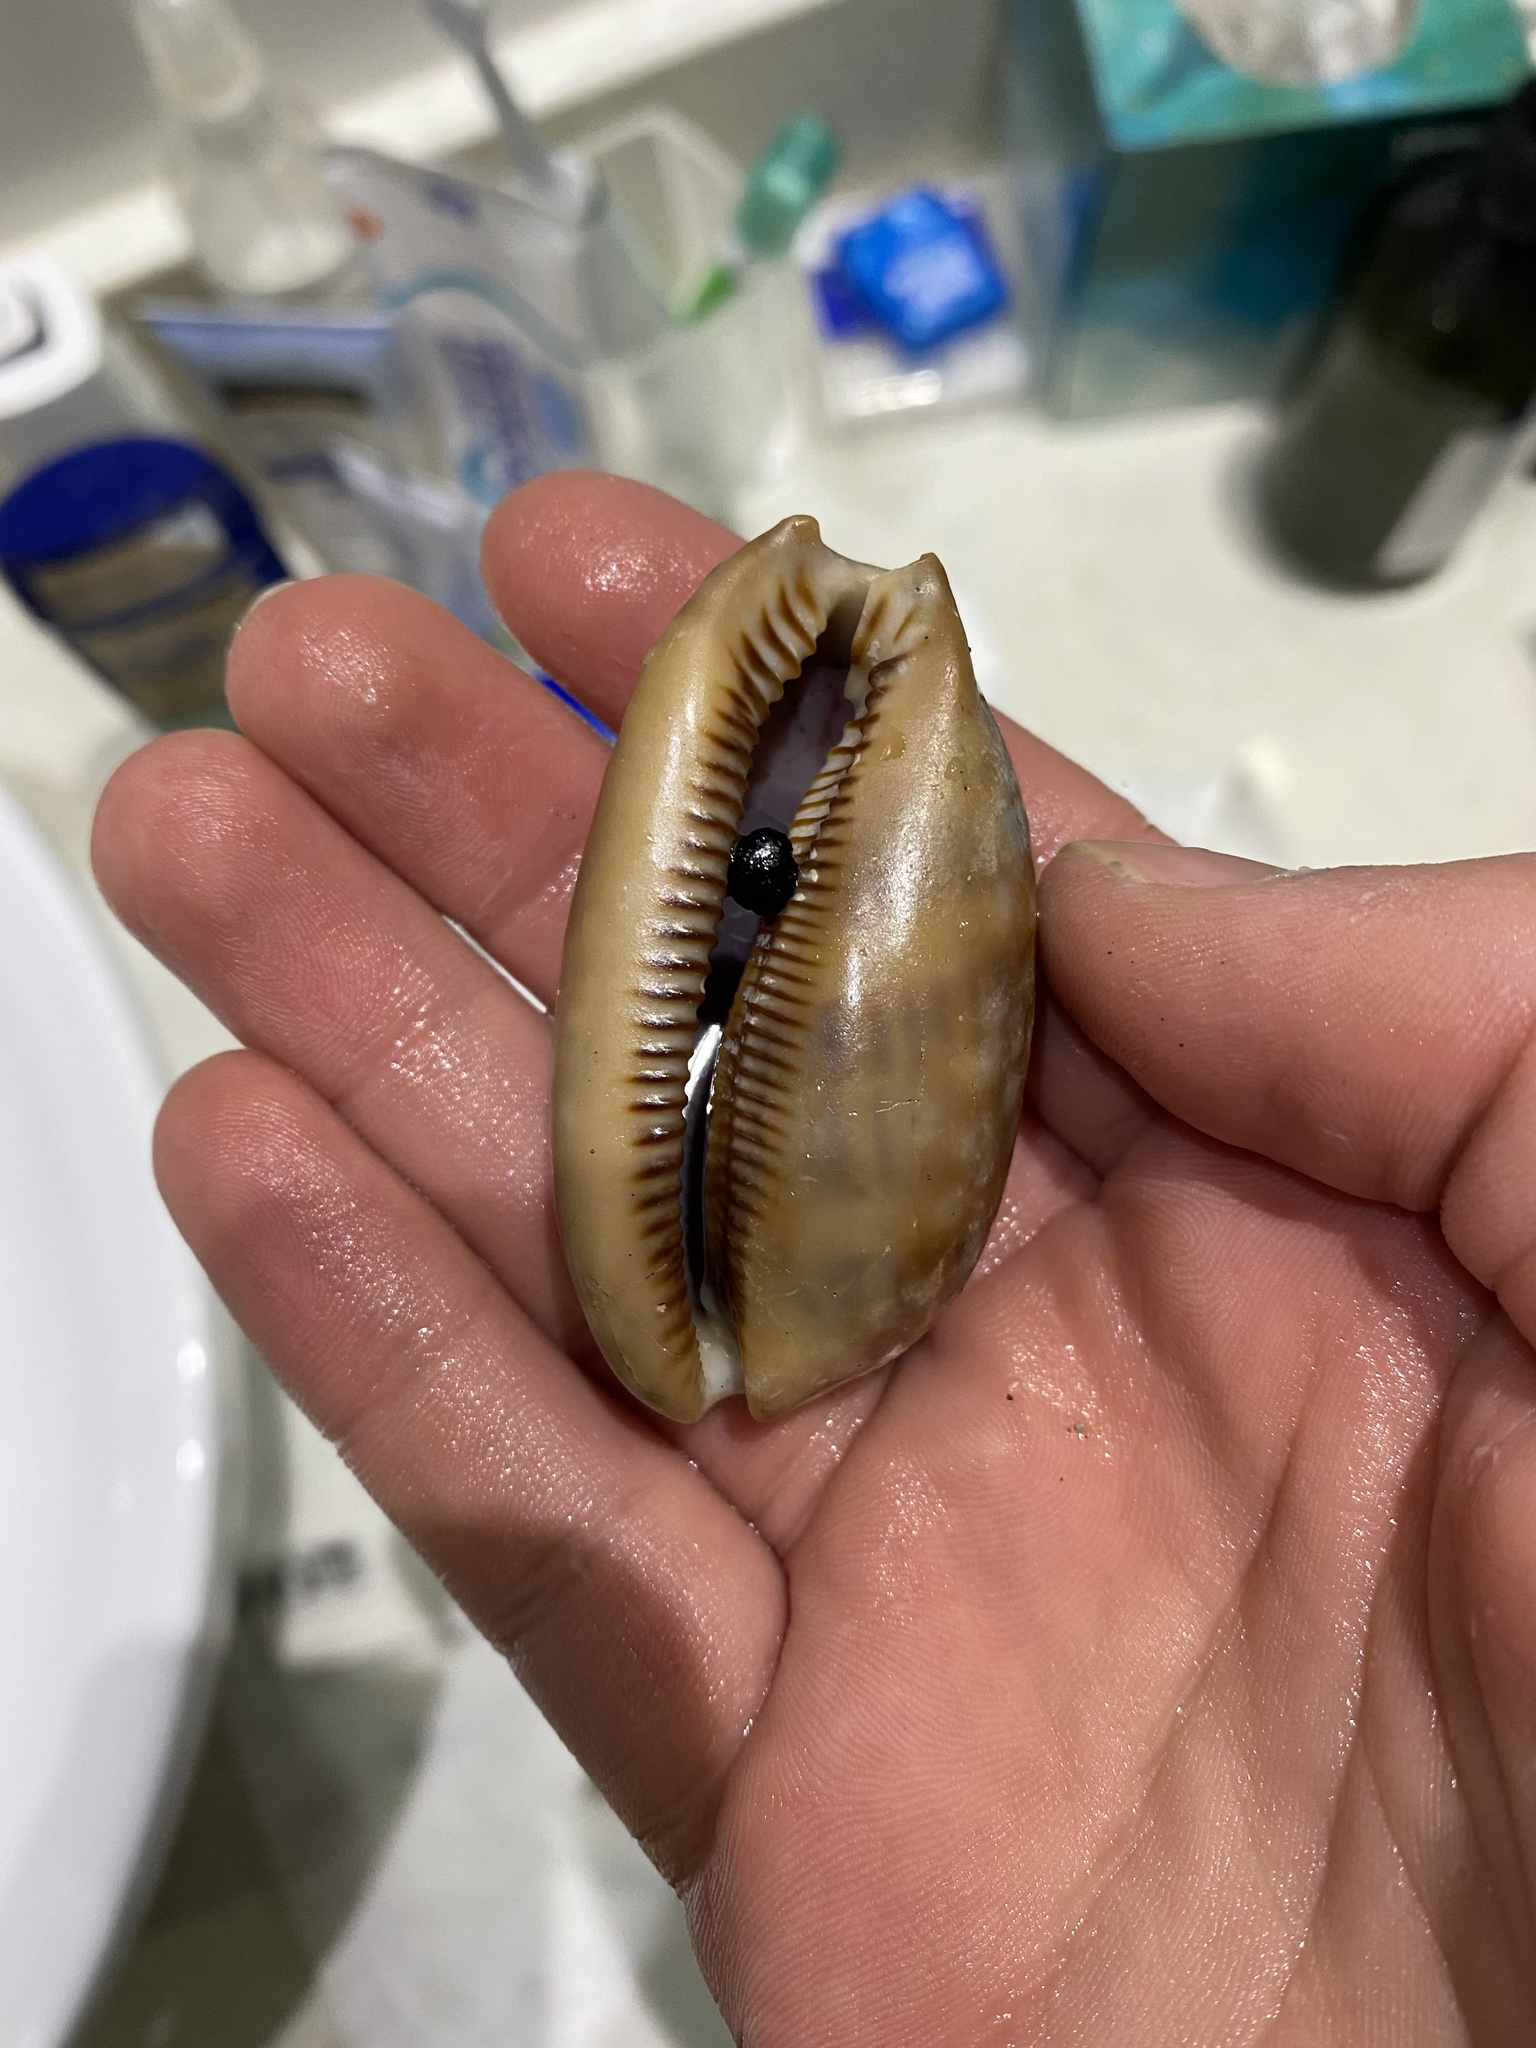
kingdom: Animalia
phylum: Mollusca
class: Gastropoda
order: Littorinimorpha
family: Cypraeidae
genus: Macrocypraea
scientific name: Macrocypraea zebra
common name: Measled cowrie
